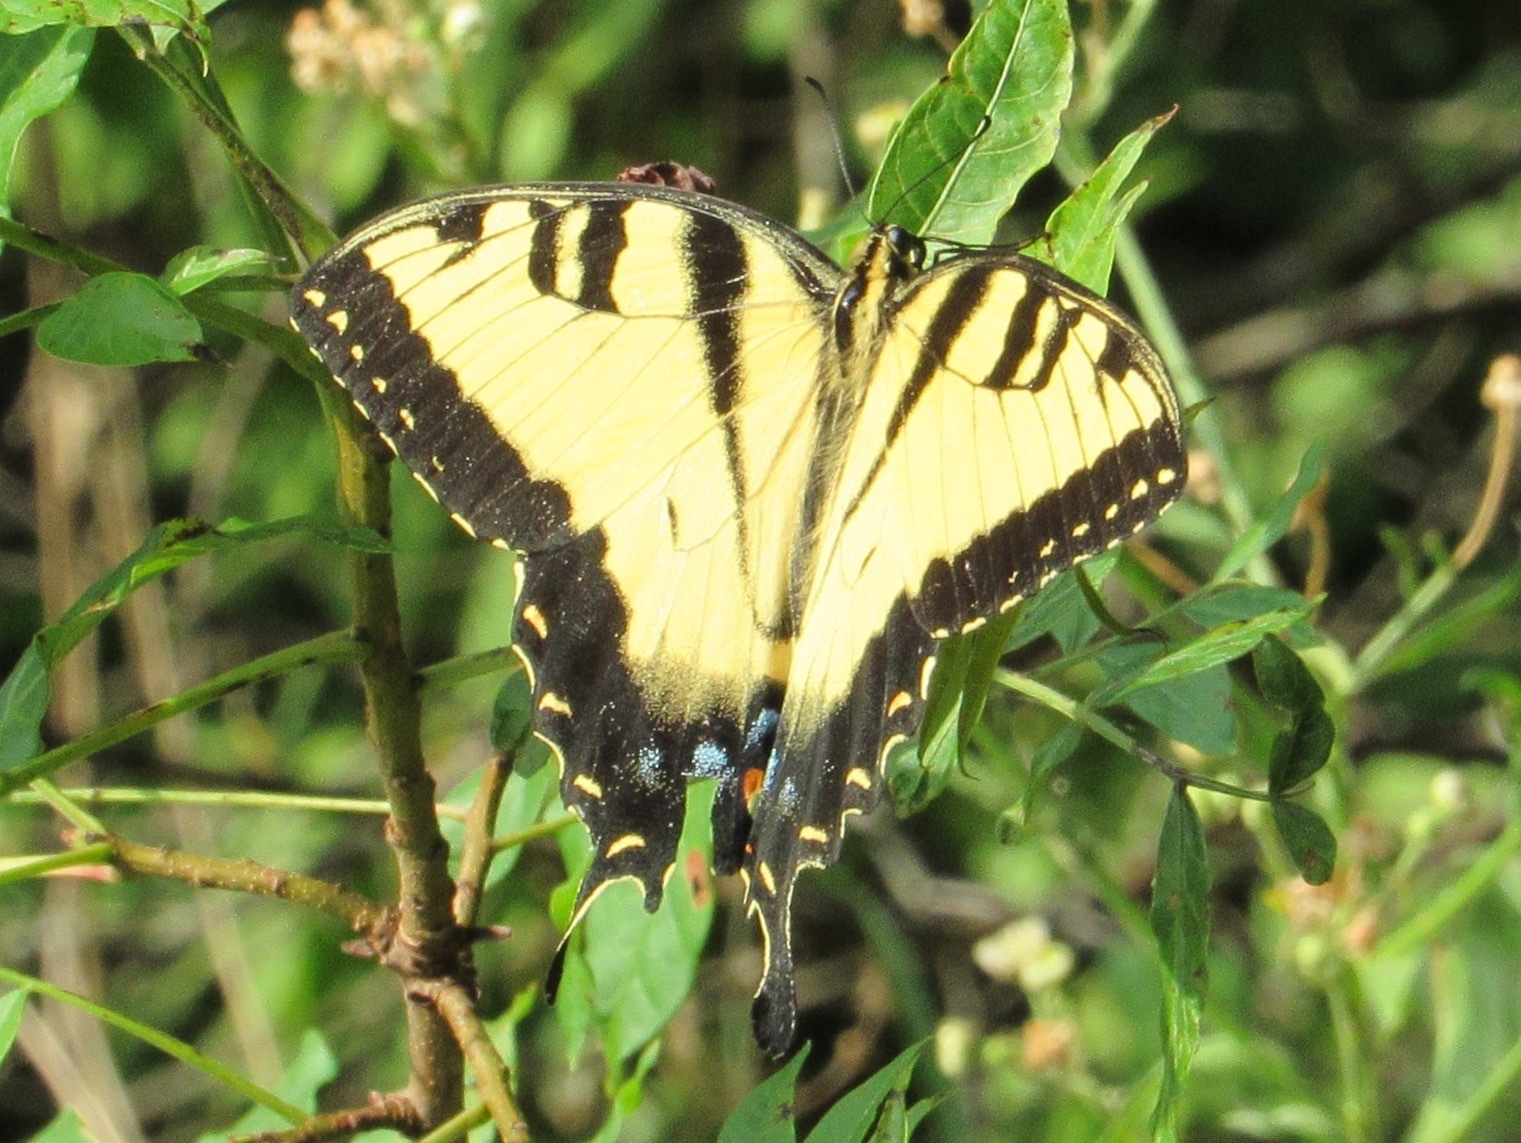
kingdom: Animalia
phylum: Arthropoda
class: Insecta
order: Lepidoptera
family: Papilionidae
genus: Papilio
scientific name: Papilio glaucus
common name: Tiger swallowtail
